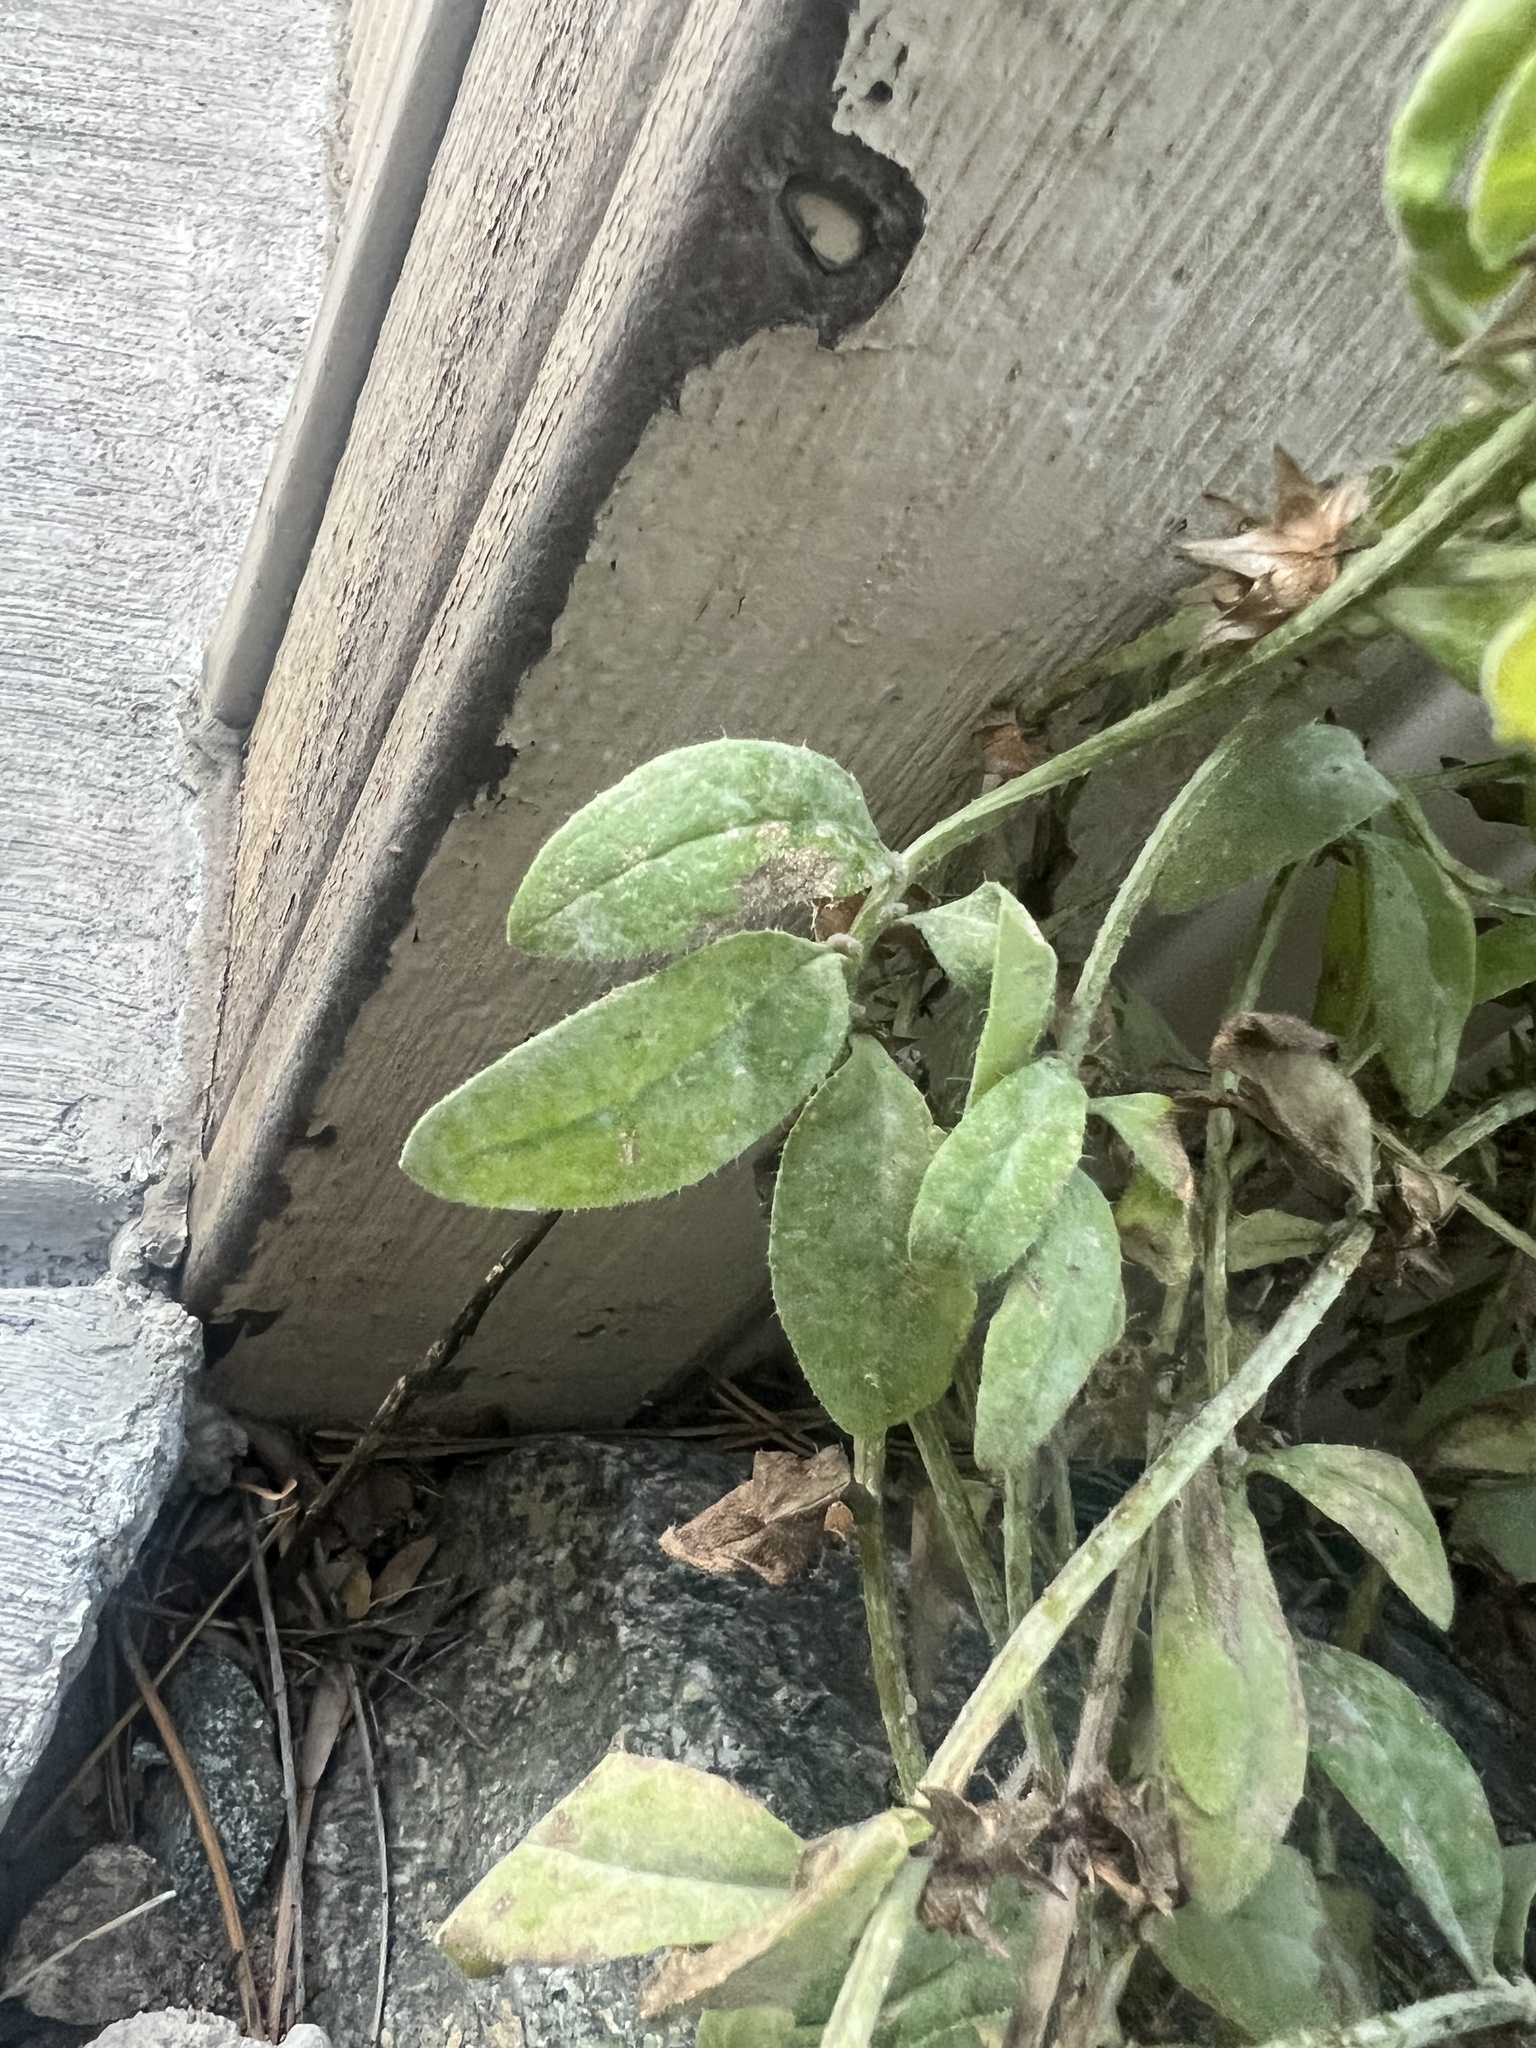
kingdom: Plantae
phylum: Tracheophyta
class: Magnoliopsida
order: Boraginales
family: Boraginaceae
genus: Asperugo
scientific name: Asperugo procumbens
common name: Madwort
